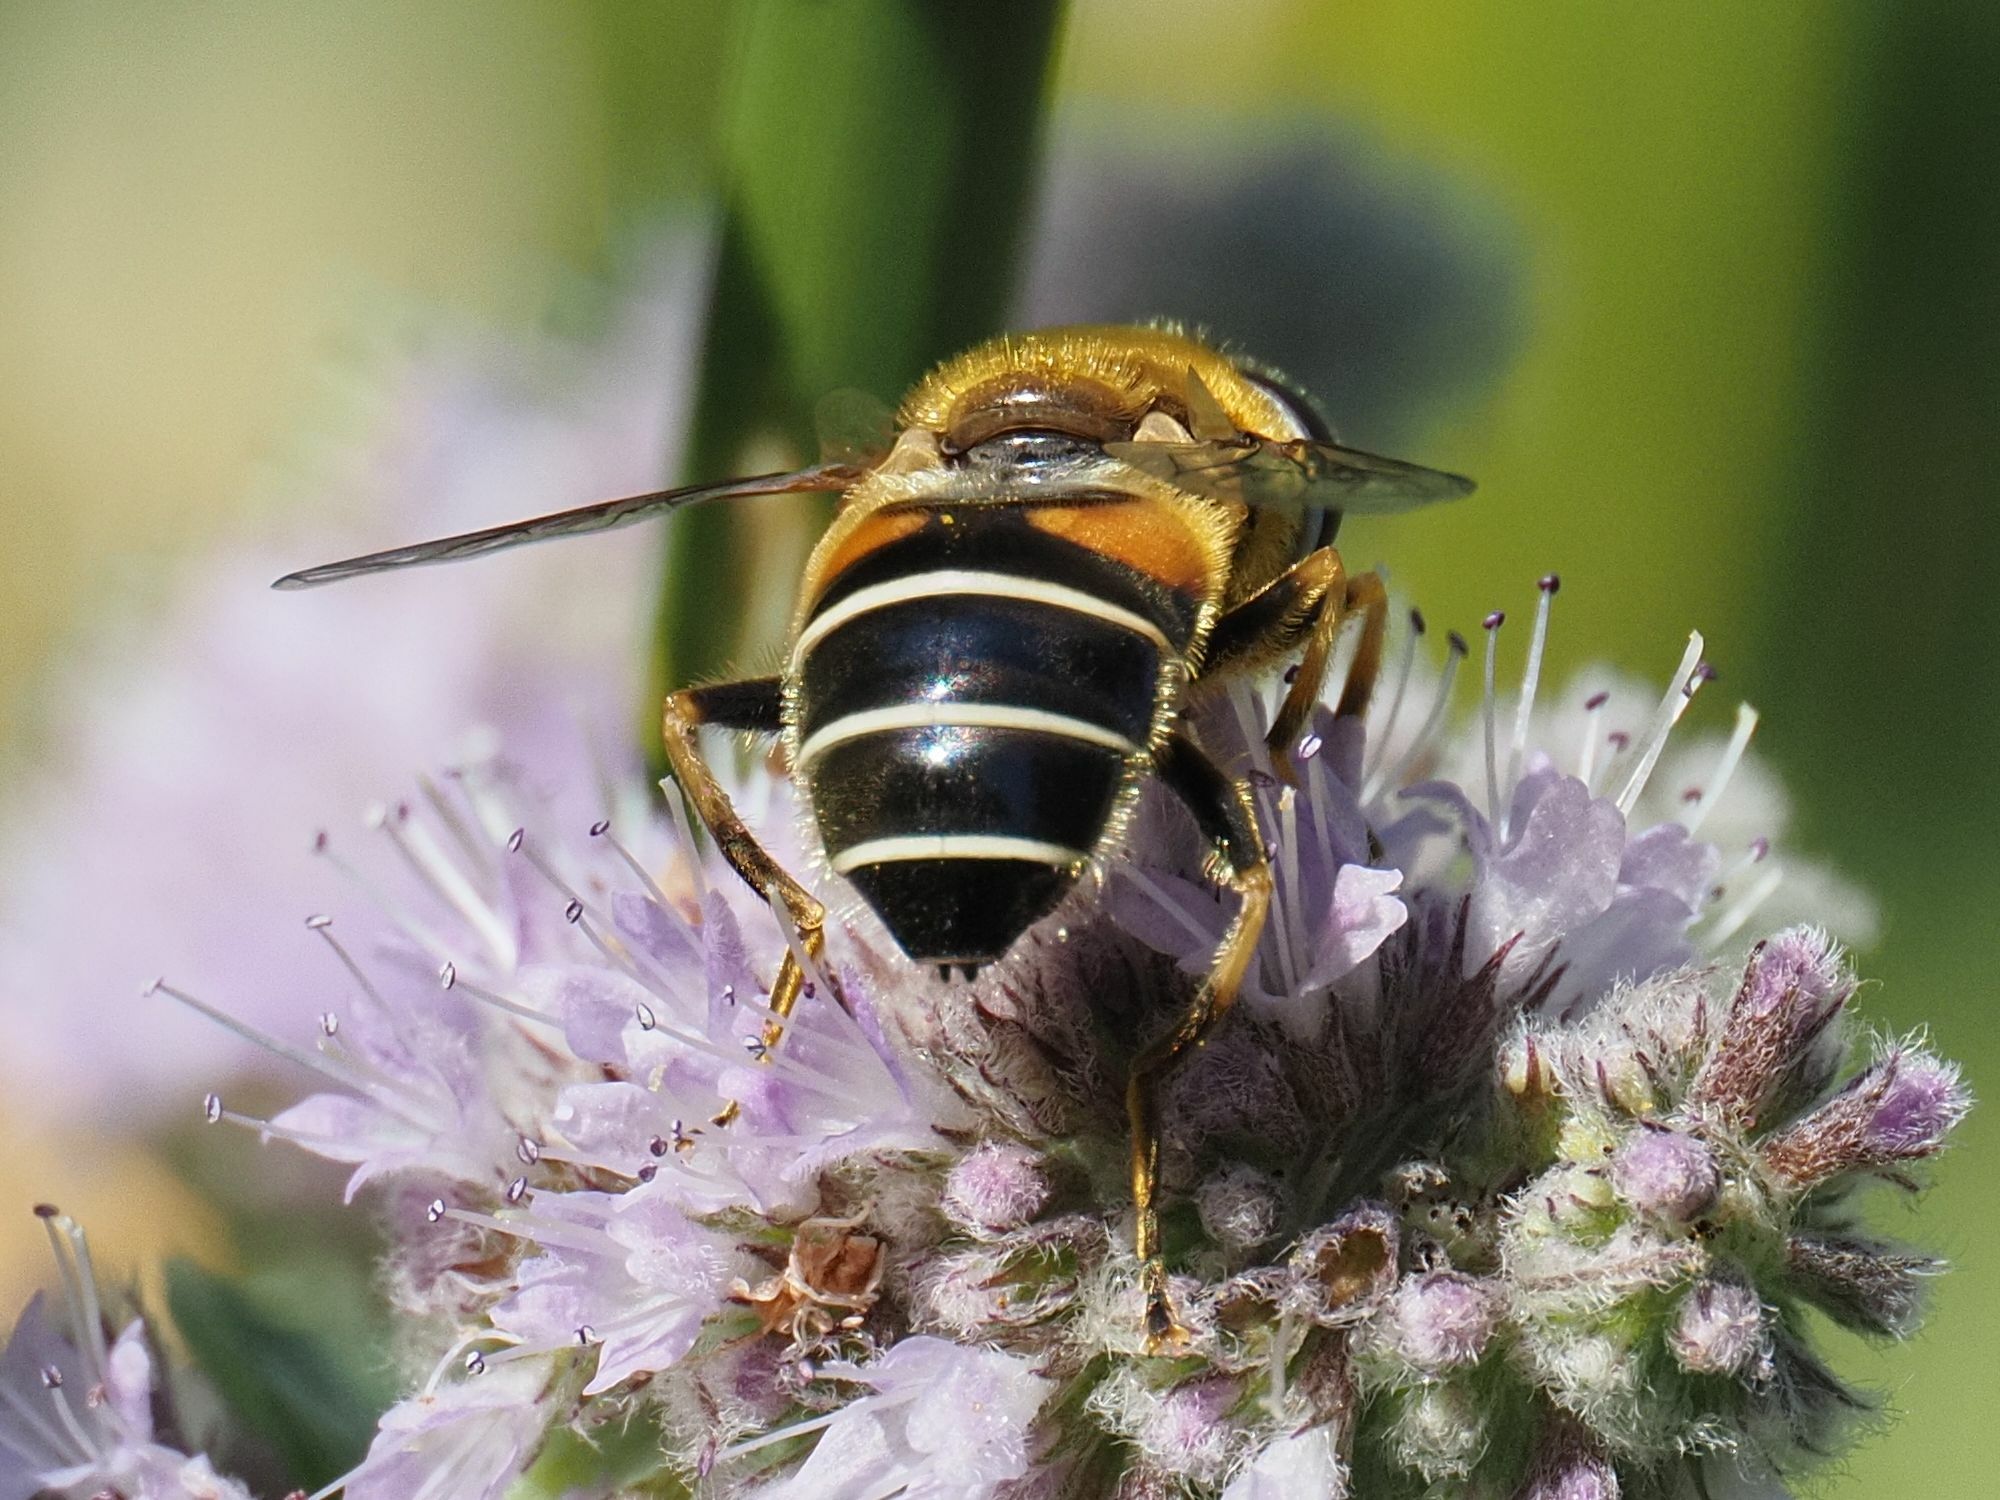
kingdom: Animalia
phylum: Arthropoda
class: Insecta
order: Diptera
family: Syrphidae
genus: Eristalis
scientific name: Eristalis nemorum
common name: Orange-spined drone fly
